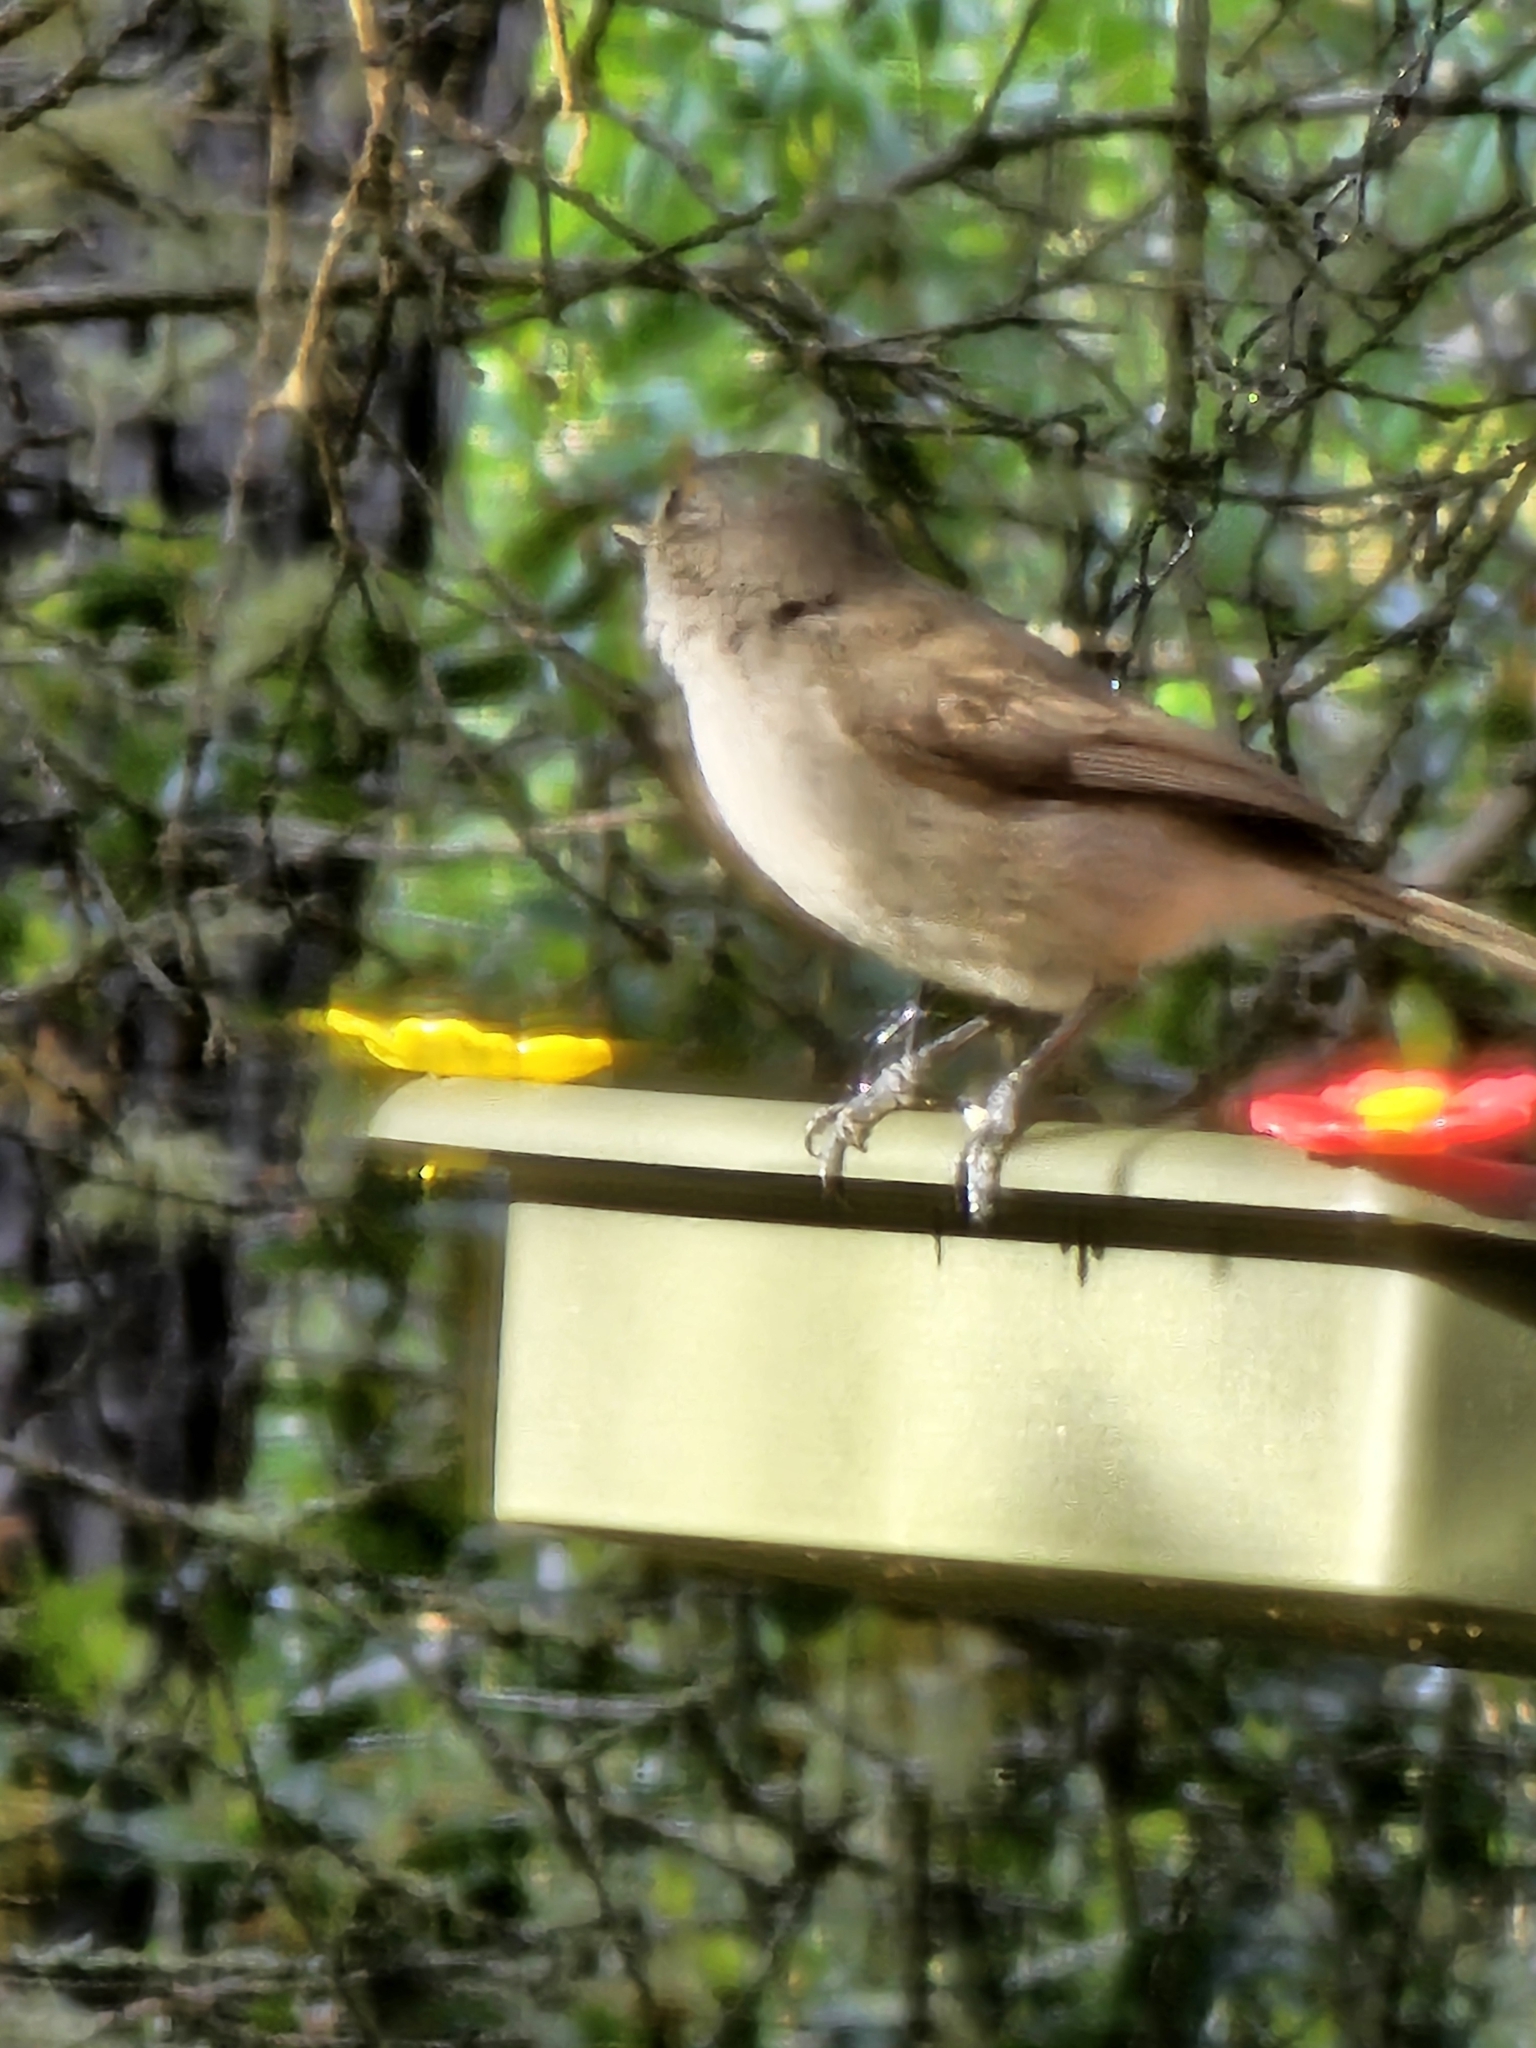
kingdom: Animalia
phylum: Chordata
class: Aves
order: Passeriformes
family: Paridae
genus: Baeolophus
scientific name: Baeolophus inornatus
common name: Oak titmouse
